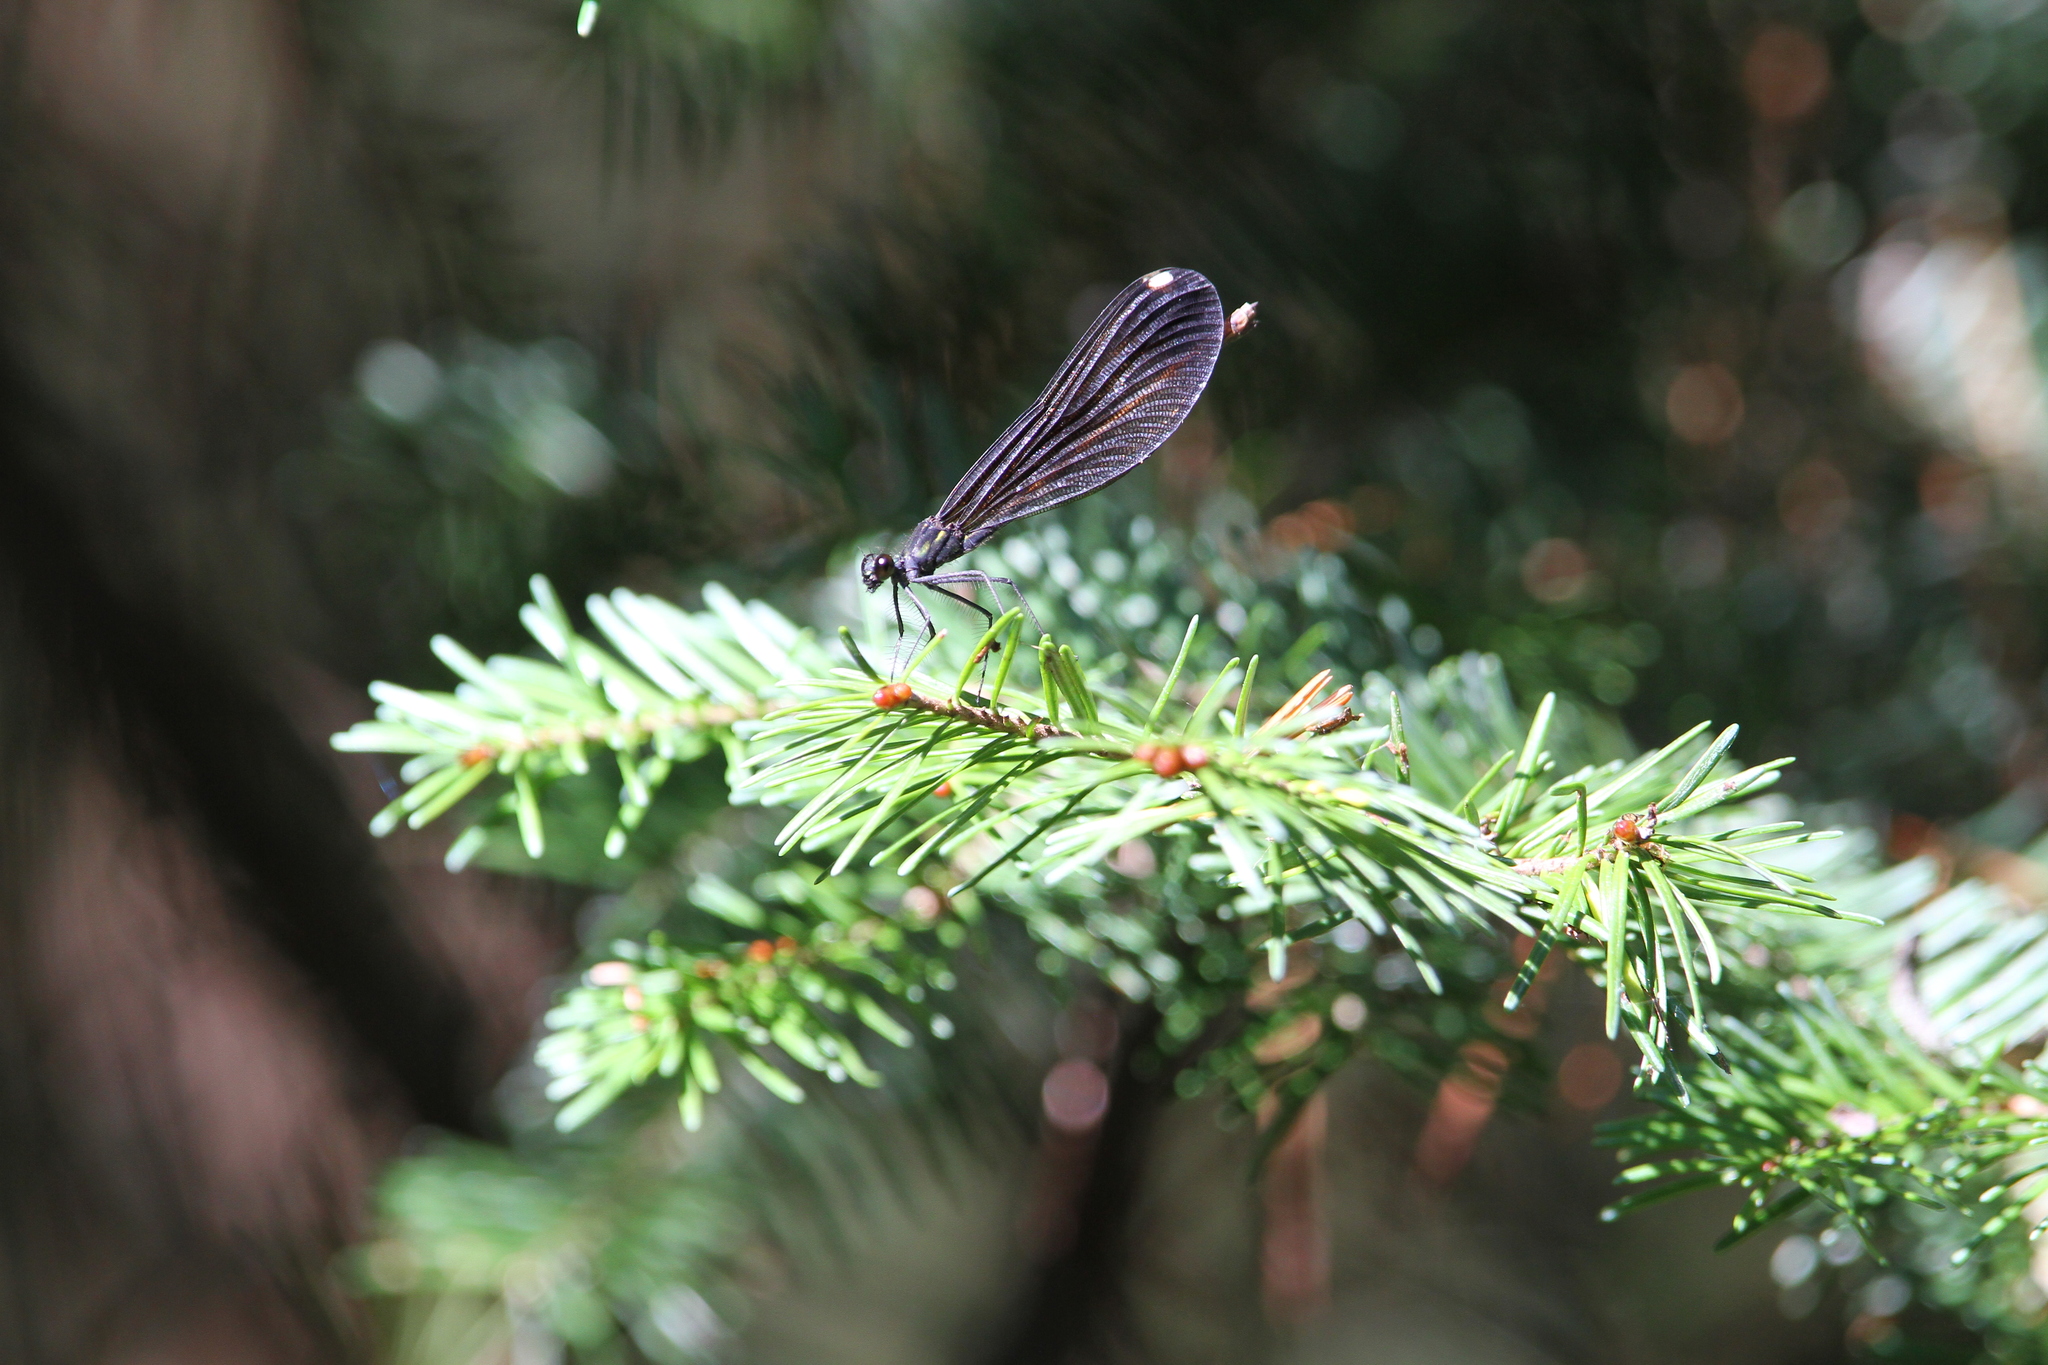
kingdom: Animalia
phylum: Arthropoda
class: Insecta
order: Odonata
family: Calopterygidae
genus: Calopteryx
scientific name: Calopteryx maculata
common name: Ebony jewelwing
